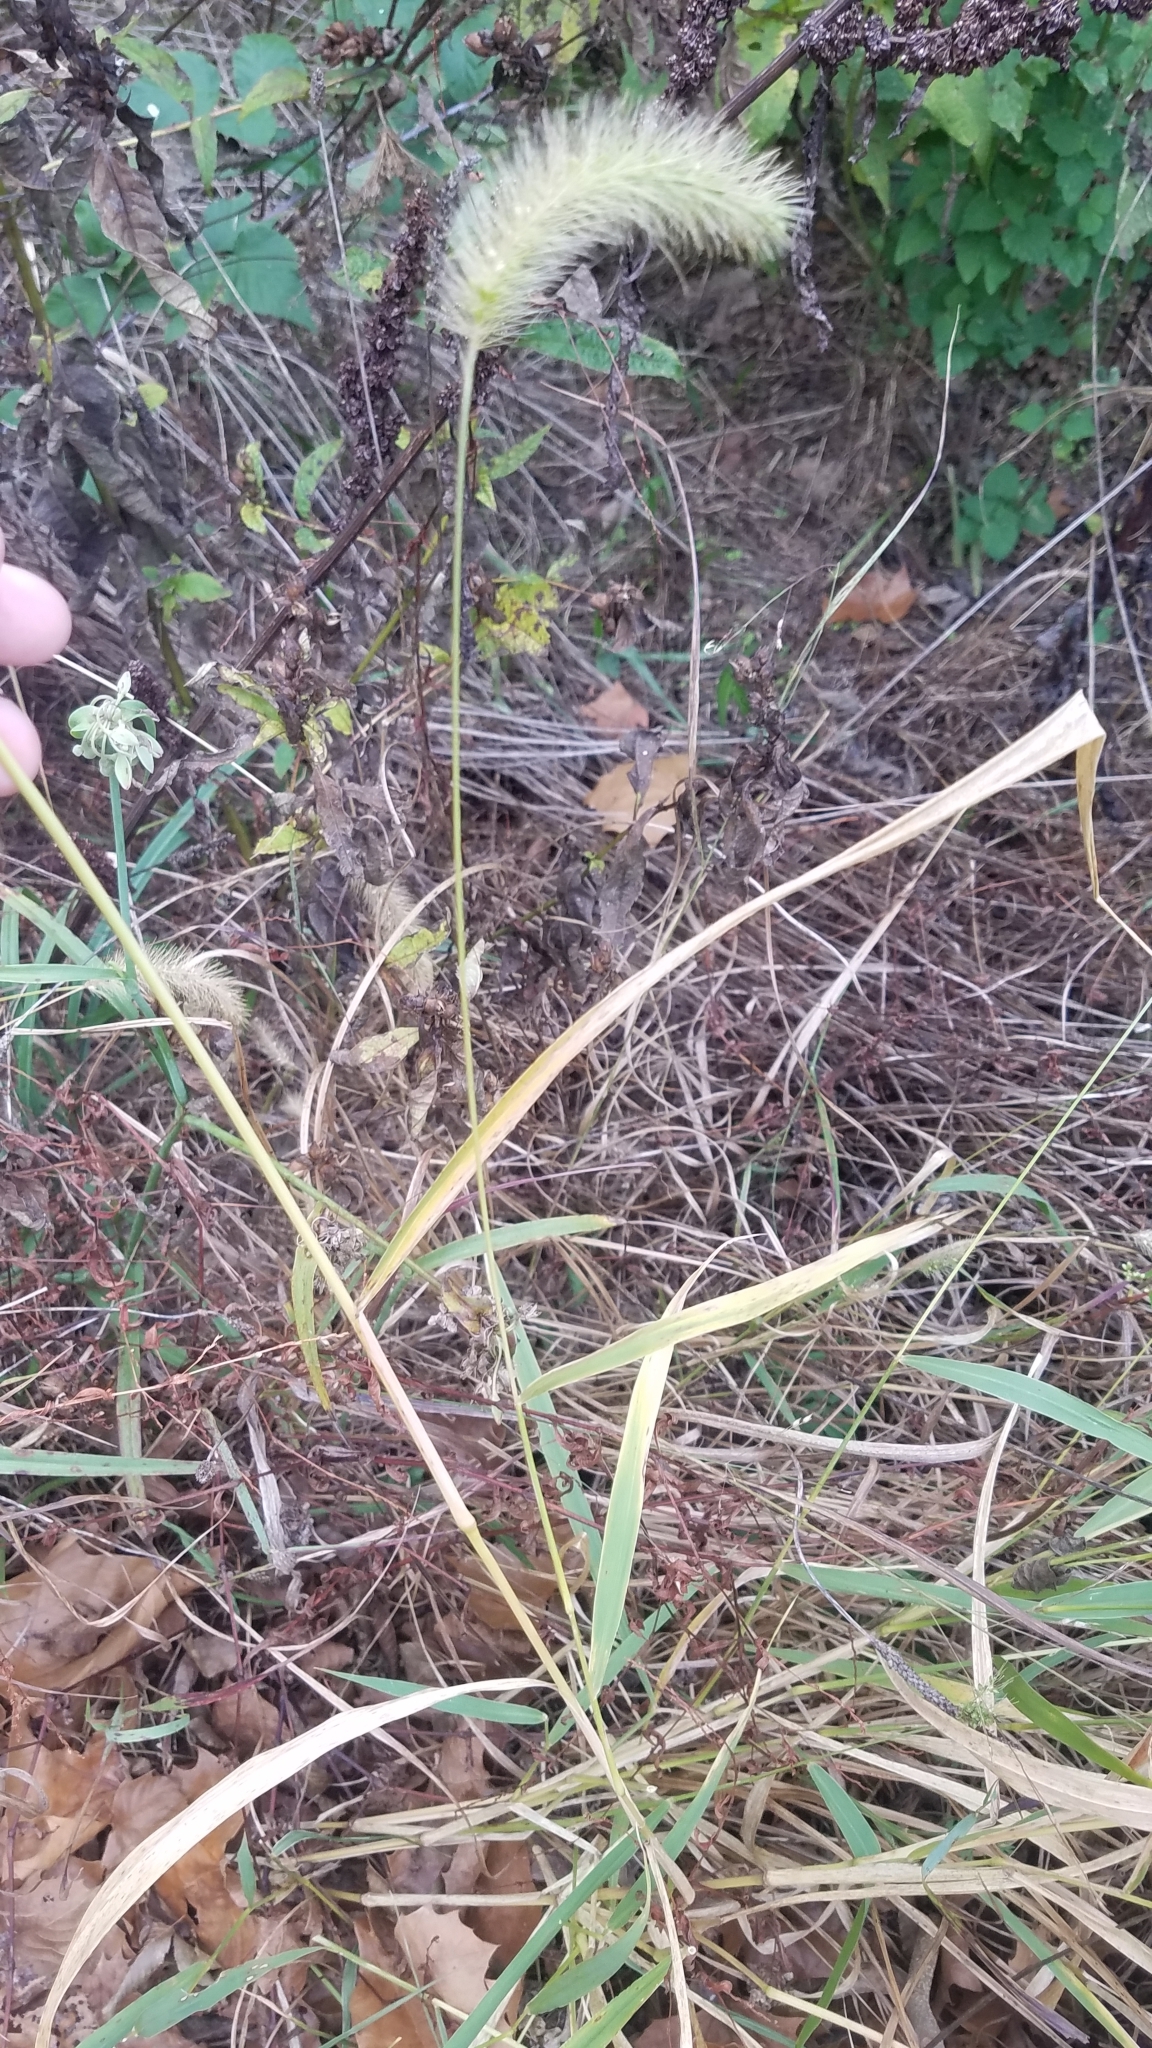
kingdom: Plantae
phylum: Tracheophyta
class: Liliopsida
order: Poales
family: Poaceae
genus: Setaria
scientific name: Setaria faberi
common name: Nodding bristle-grass
